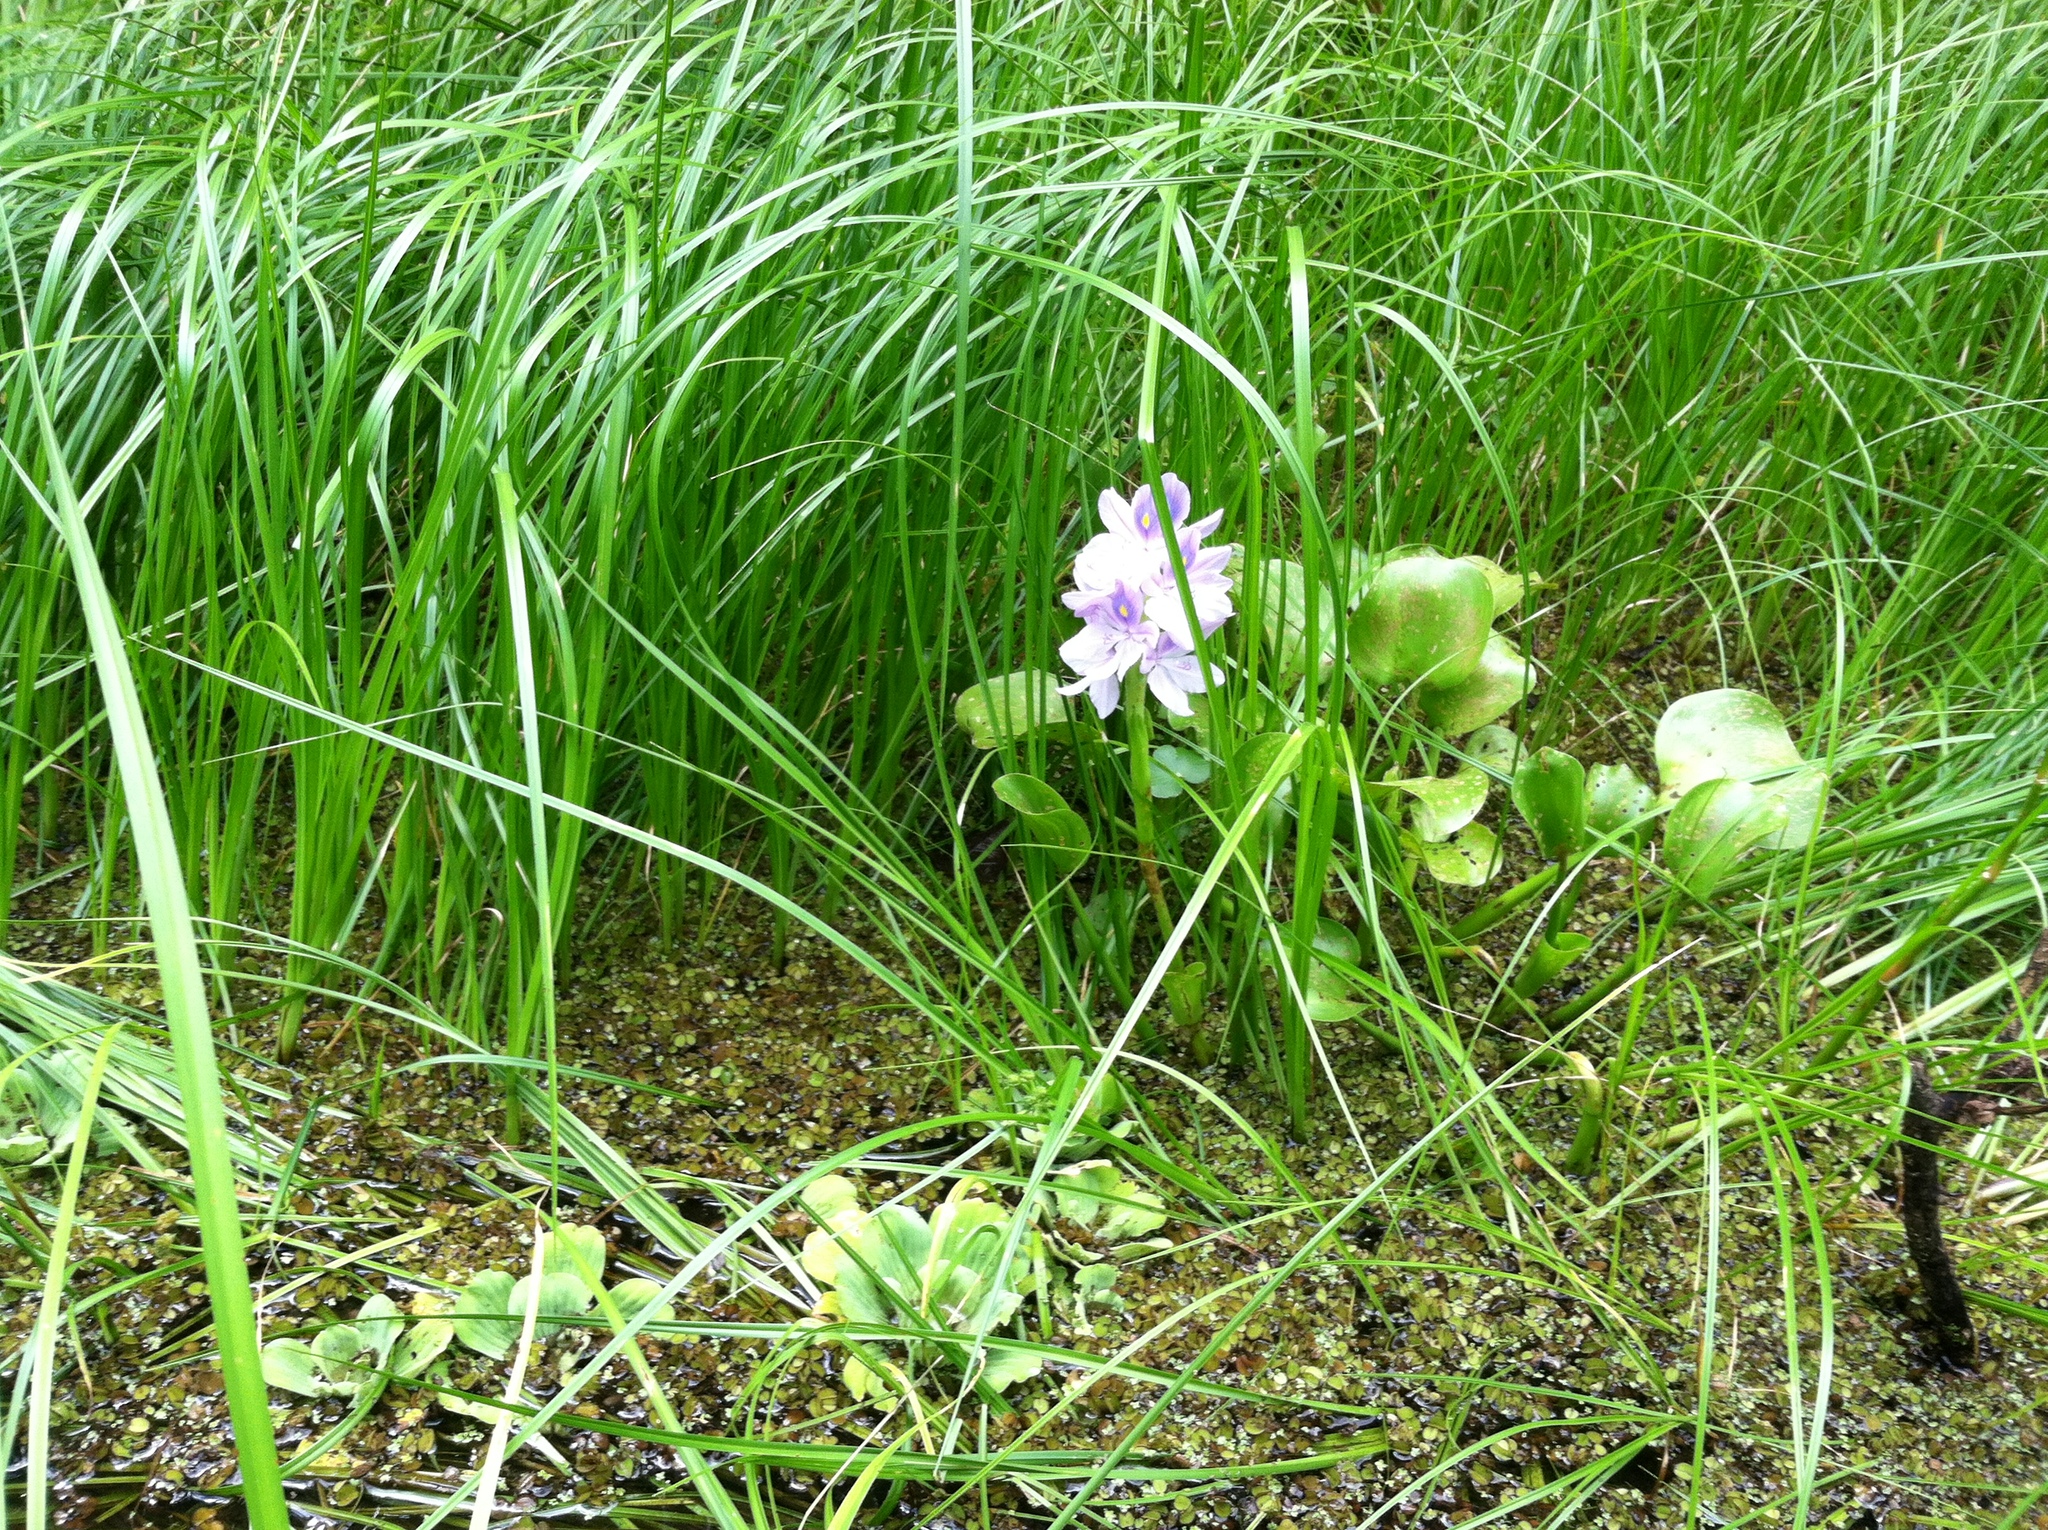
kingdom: Plantae
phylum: Tracheophyta
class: Liliopsida
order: Commelinales
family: Pontederiaceae
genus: Pontederia
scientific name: Pontederia crassipes
